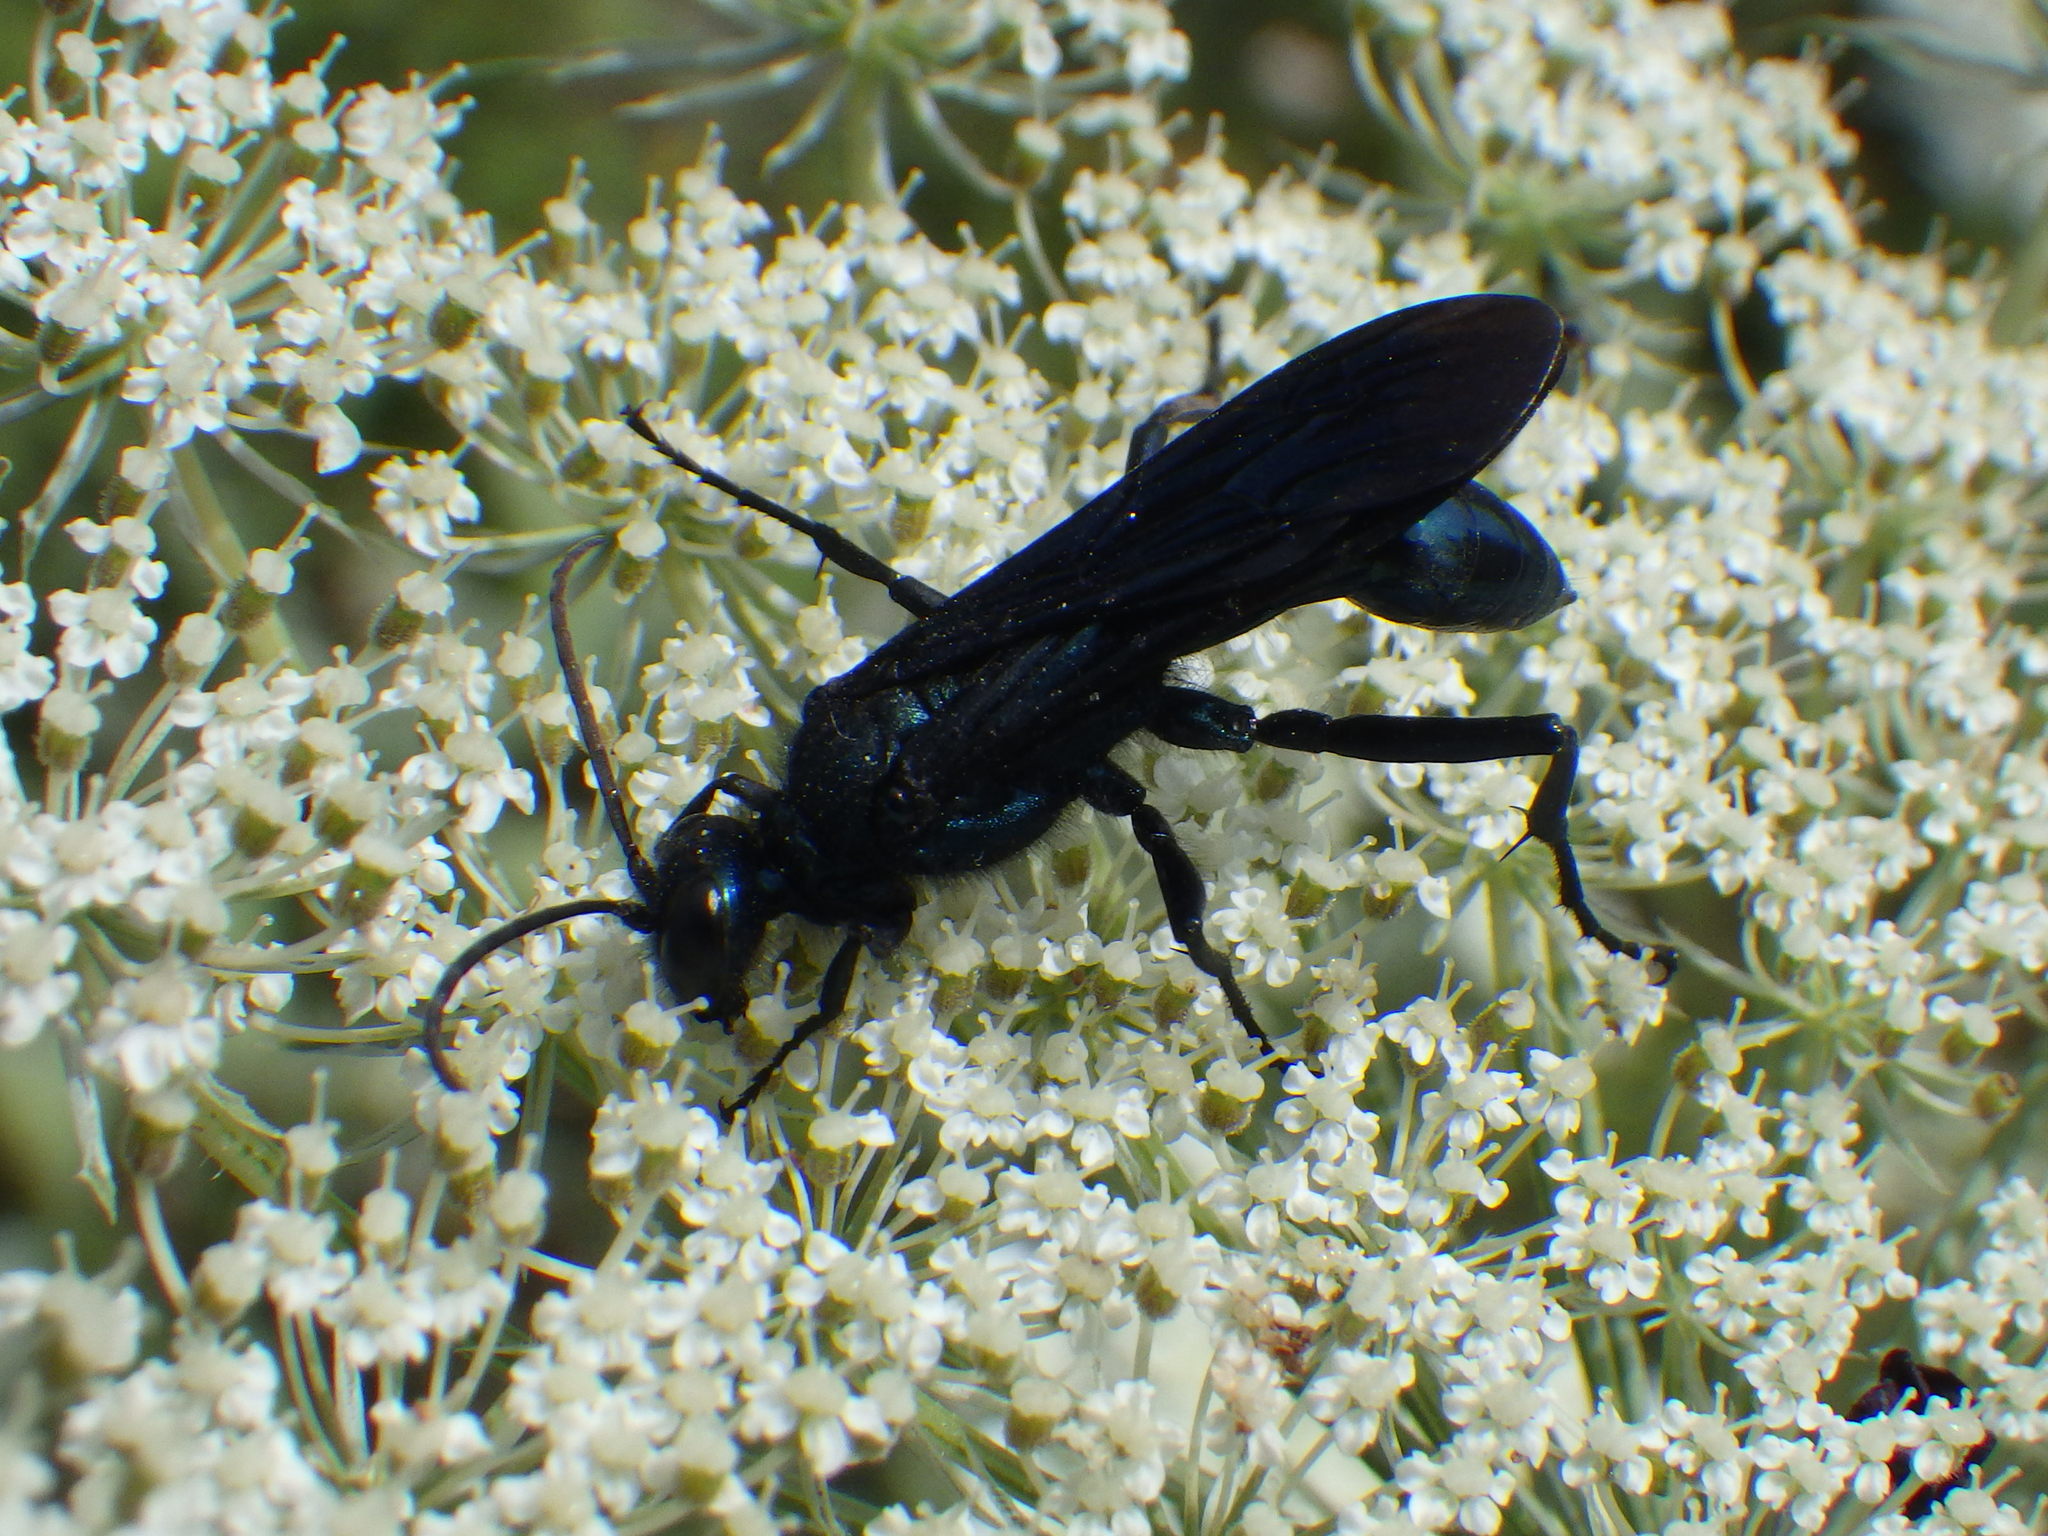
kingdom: Animalia
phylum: Arthropoda
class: Insecta
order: Hymenoptera
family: Sphecidae
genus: Chalybion
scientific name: Chalybion californicum
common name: Mud dauber
